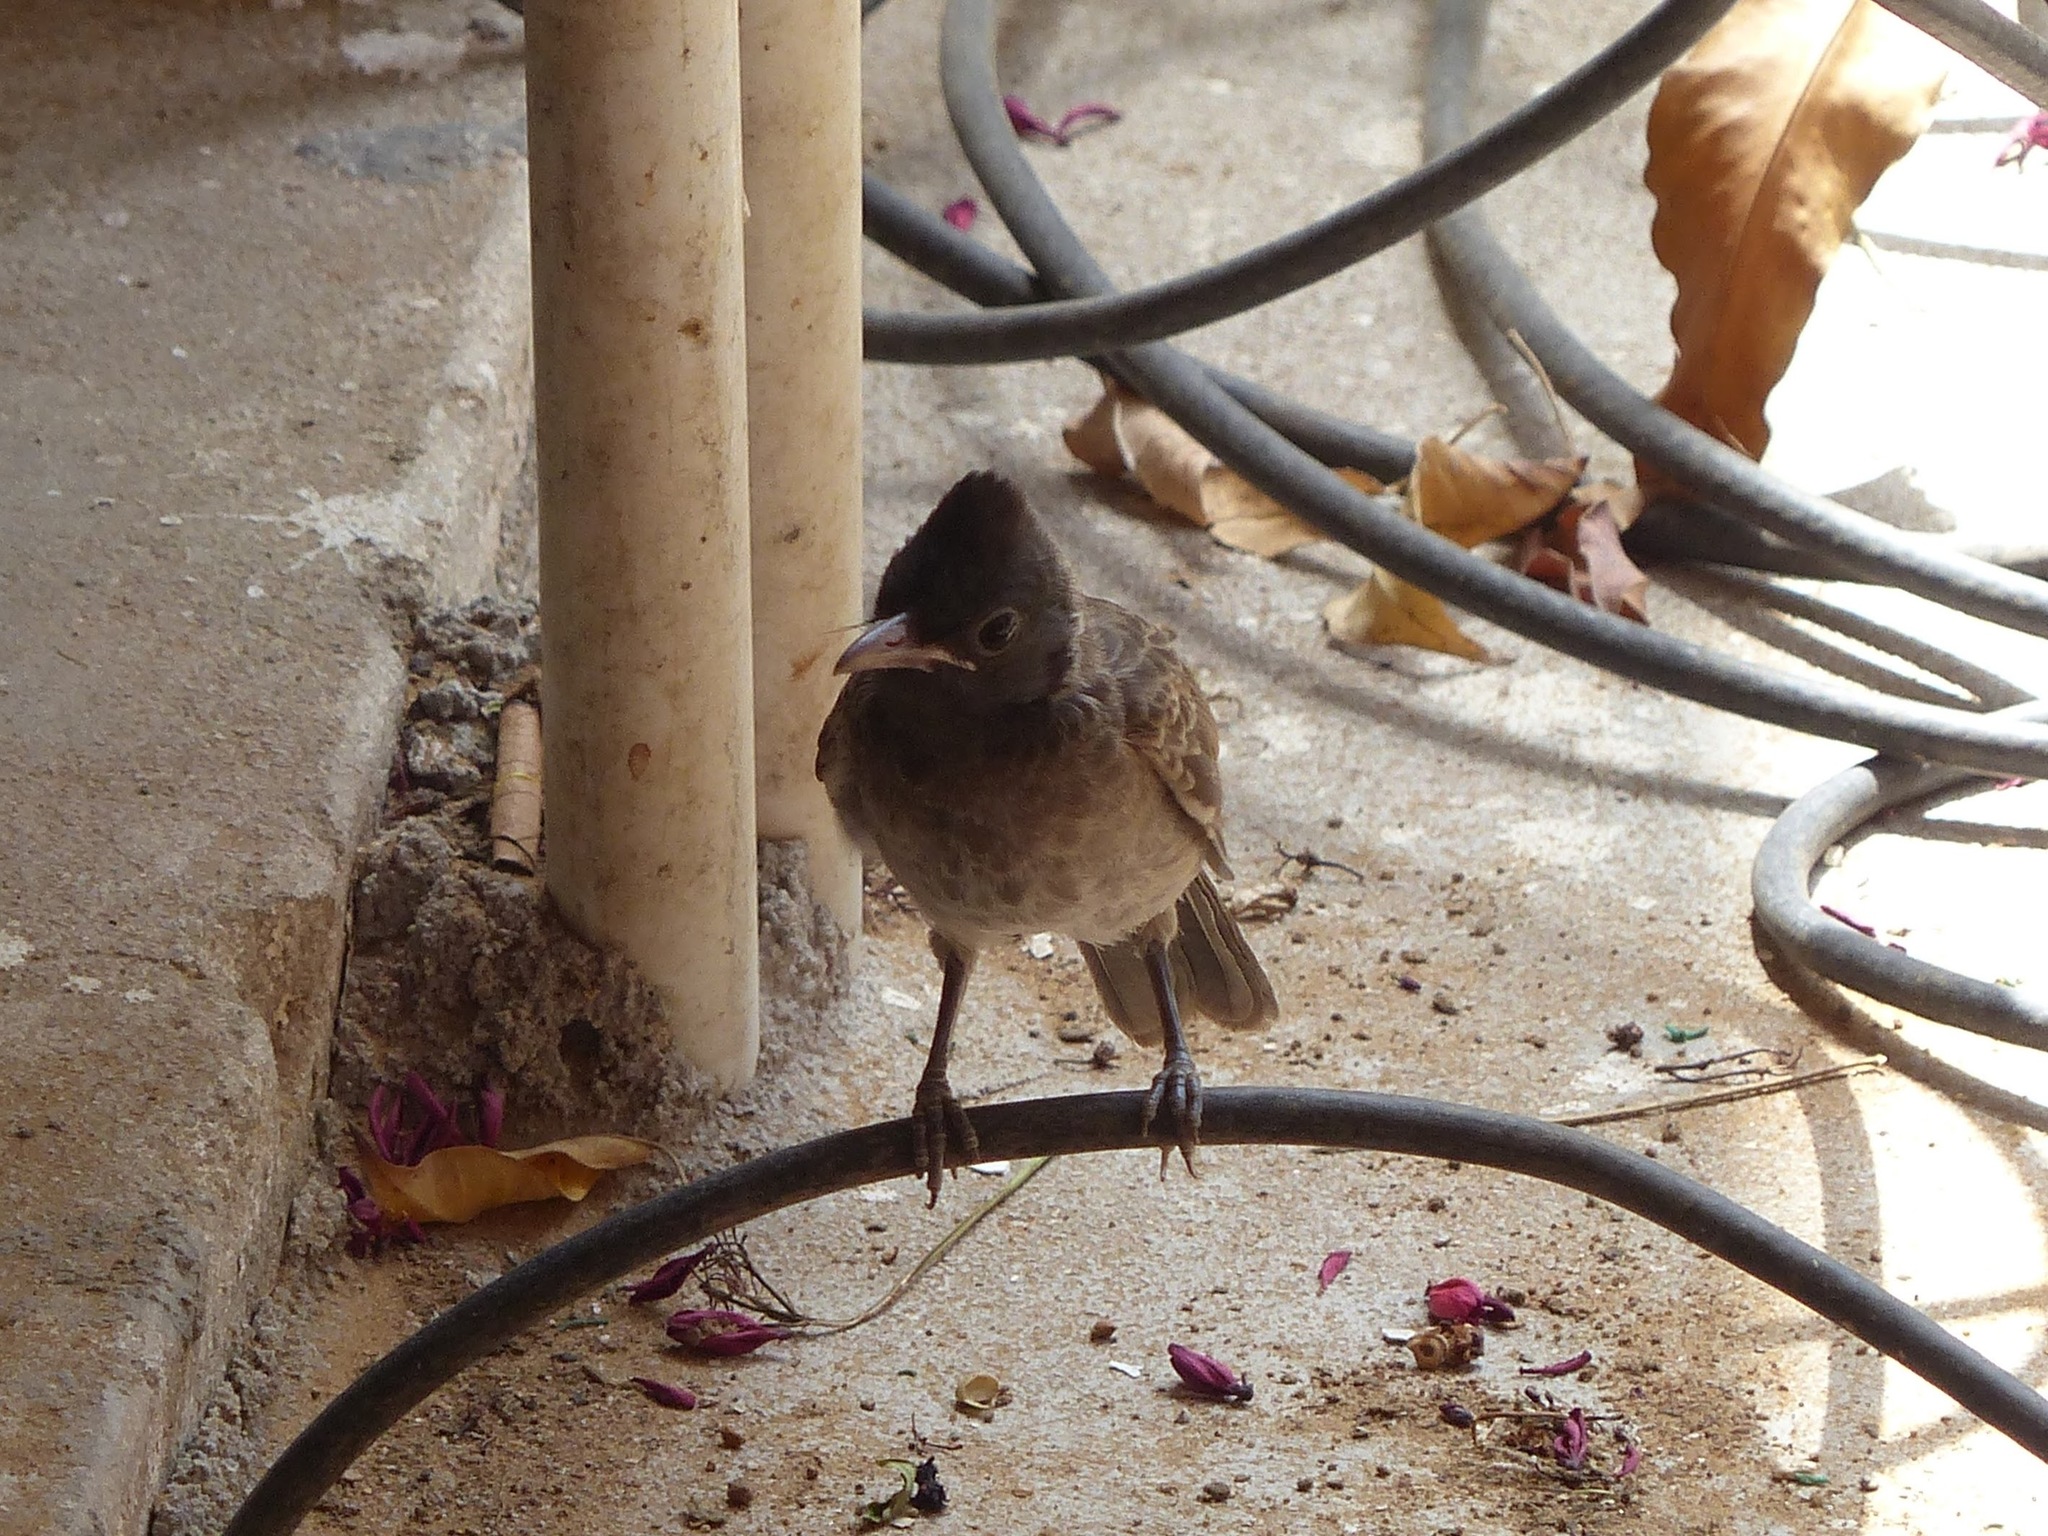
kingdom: Animalia
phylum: Chordata
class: Aves
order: Passeriformes
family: Pycnonotidae
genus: Pycnonotus
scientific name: Pycnonotus cafer
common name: Red-vented bulbul
